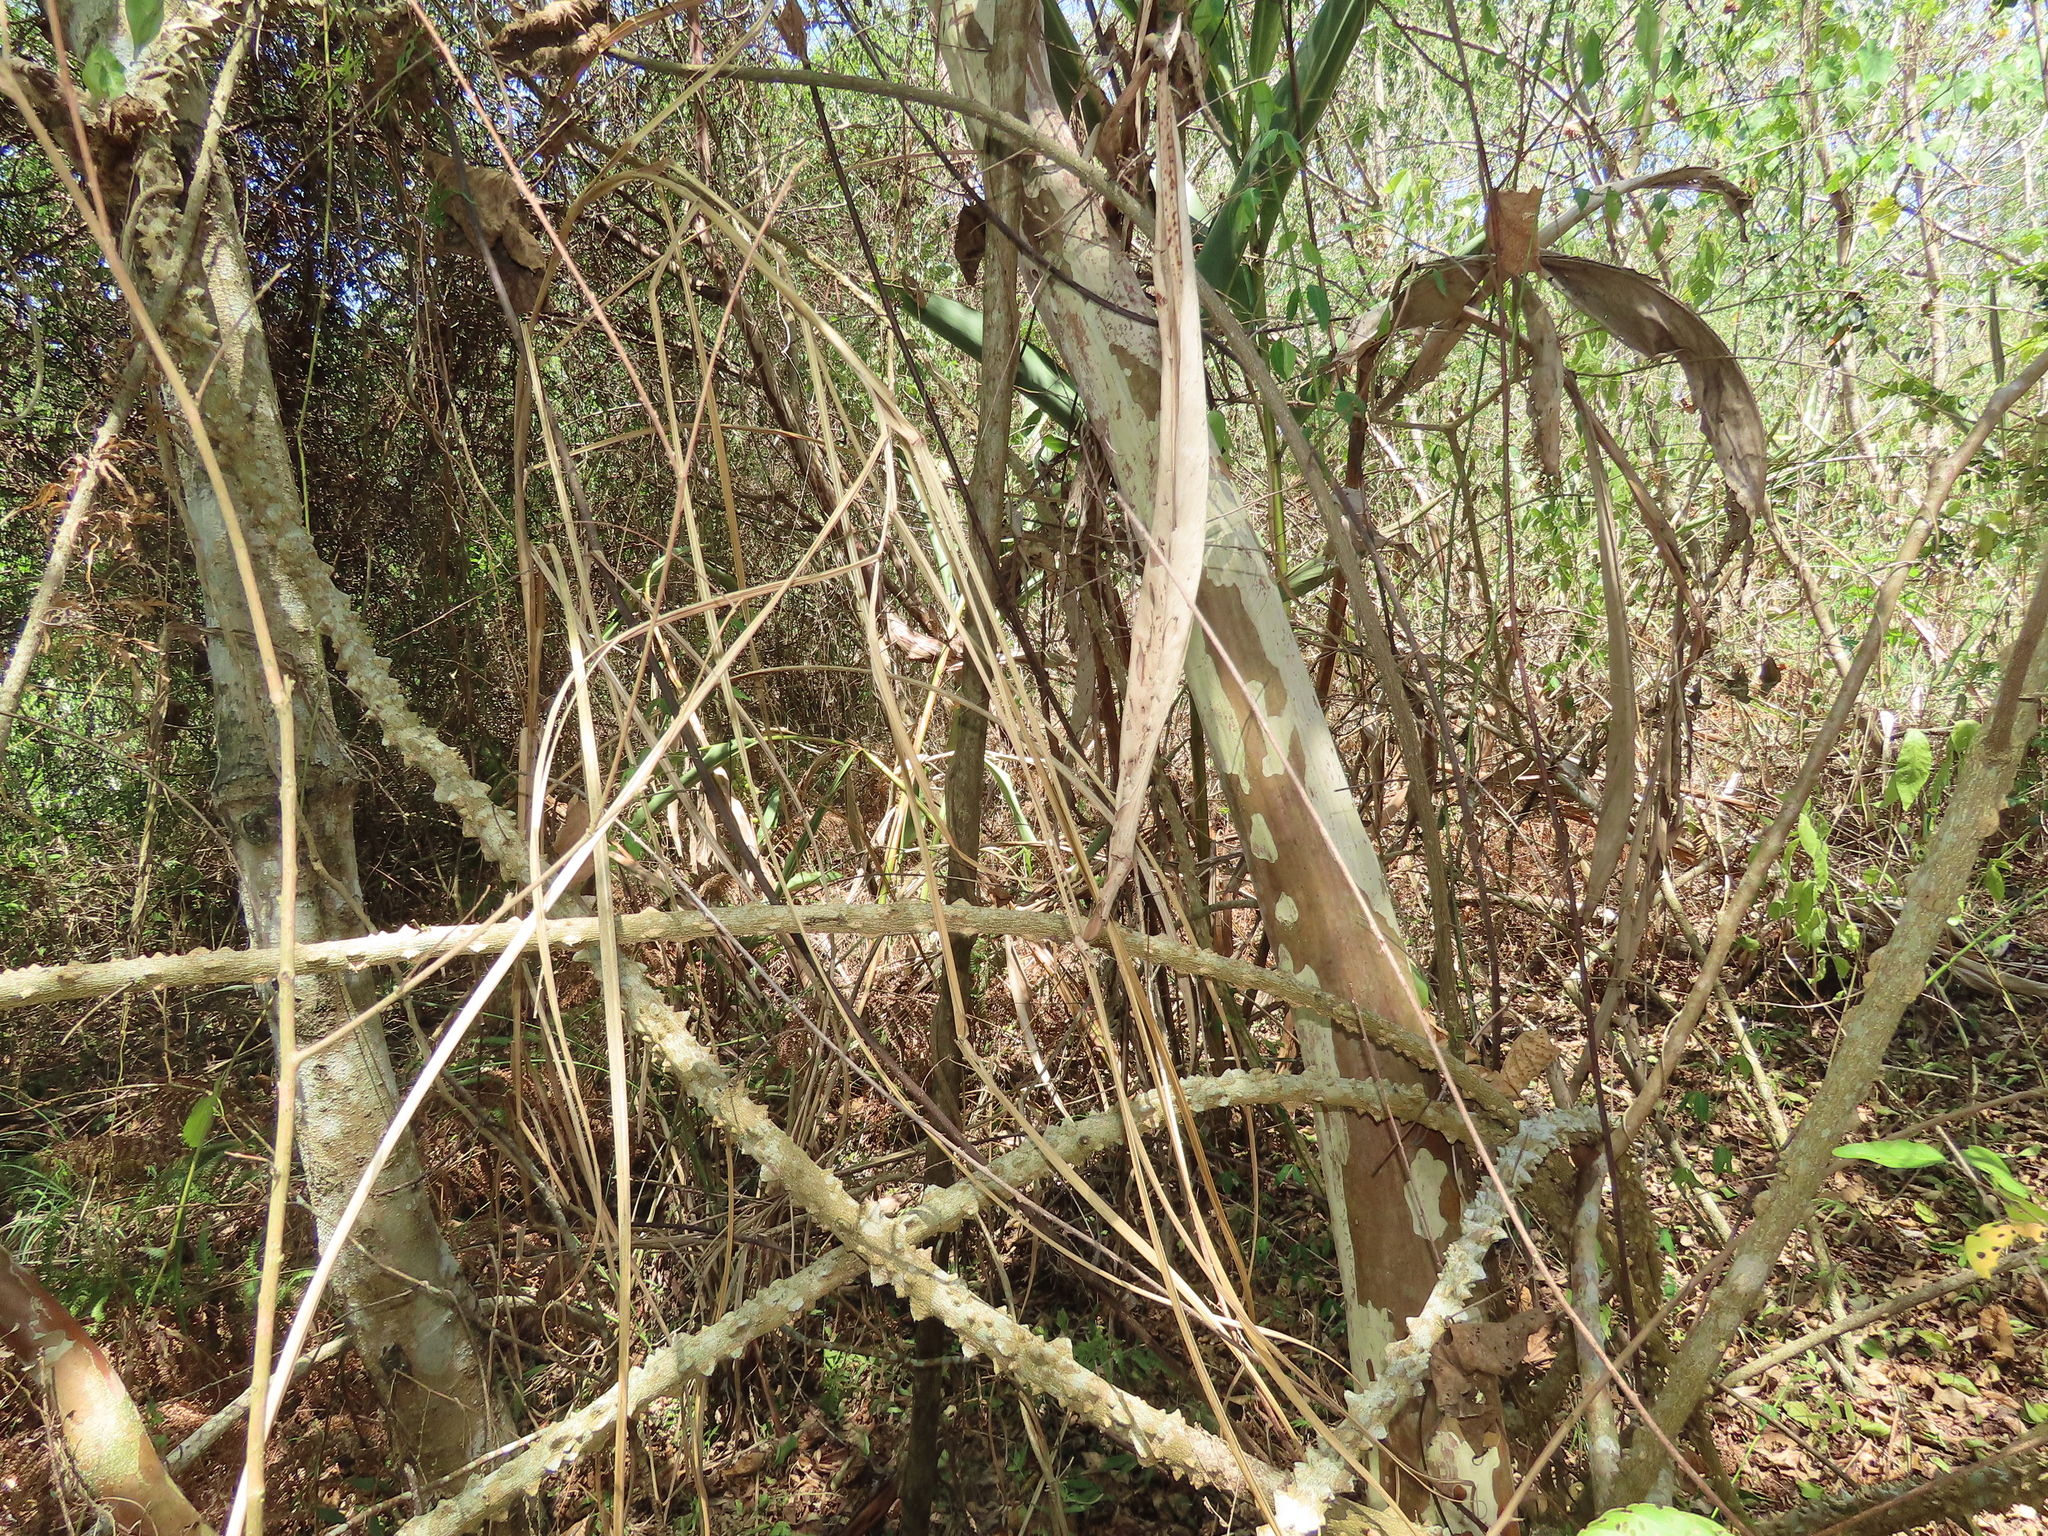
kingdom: Plantae
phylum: Tracheophyta
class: Magnoliopsida
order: Sapindales
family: Rutaceae
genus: Zanthoxylum
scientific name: Zanthoxylum asiaticum
